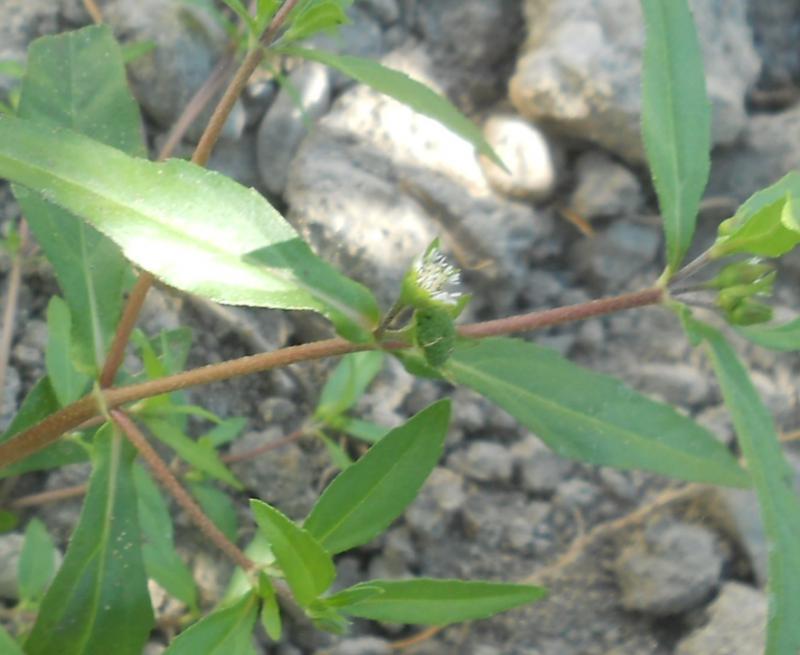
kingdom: Plantae
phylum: Tracheophyta
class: Magnoliopsida
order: Asterales
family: Asteraceae
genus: Eclipta
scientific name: Eclipta prostrata
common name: False daisy
